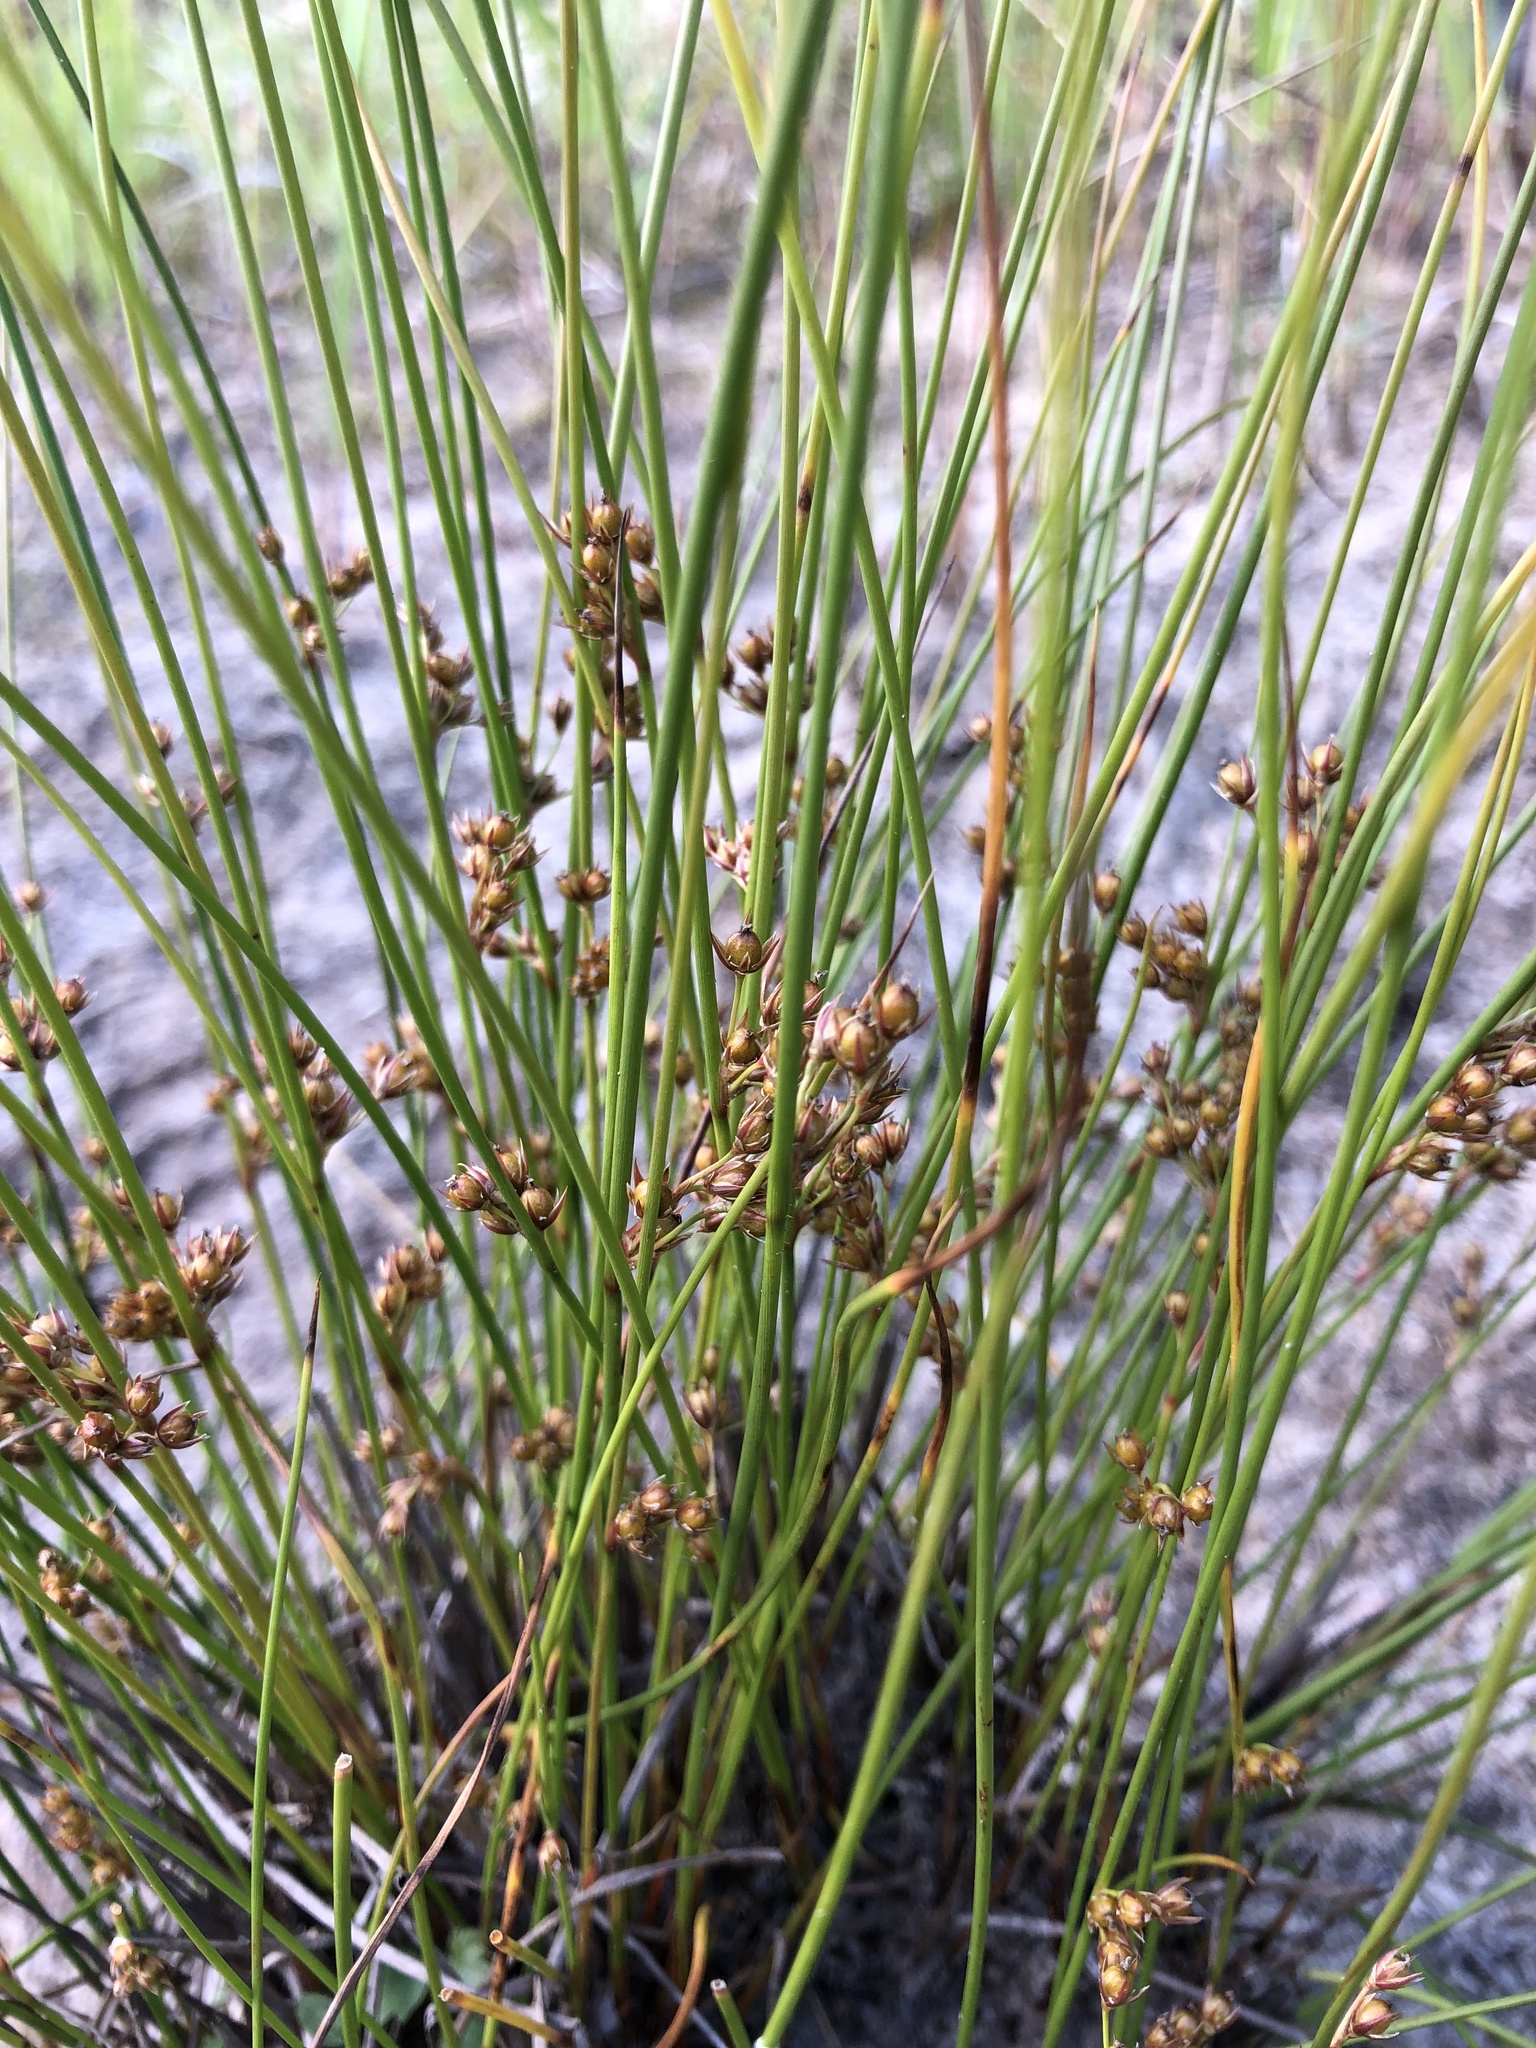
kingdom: Plantae
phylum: Tracheophyta
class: Liliopsida
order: Poales
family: Juncaceae
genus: Juncus
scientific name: Juncus filiformis
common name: Thread rush
